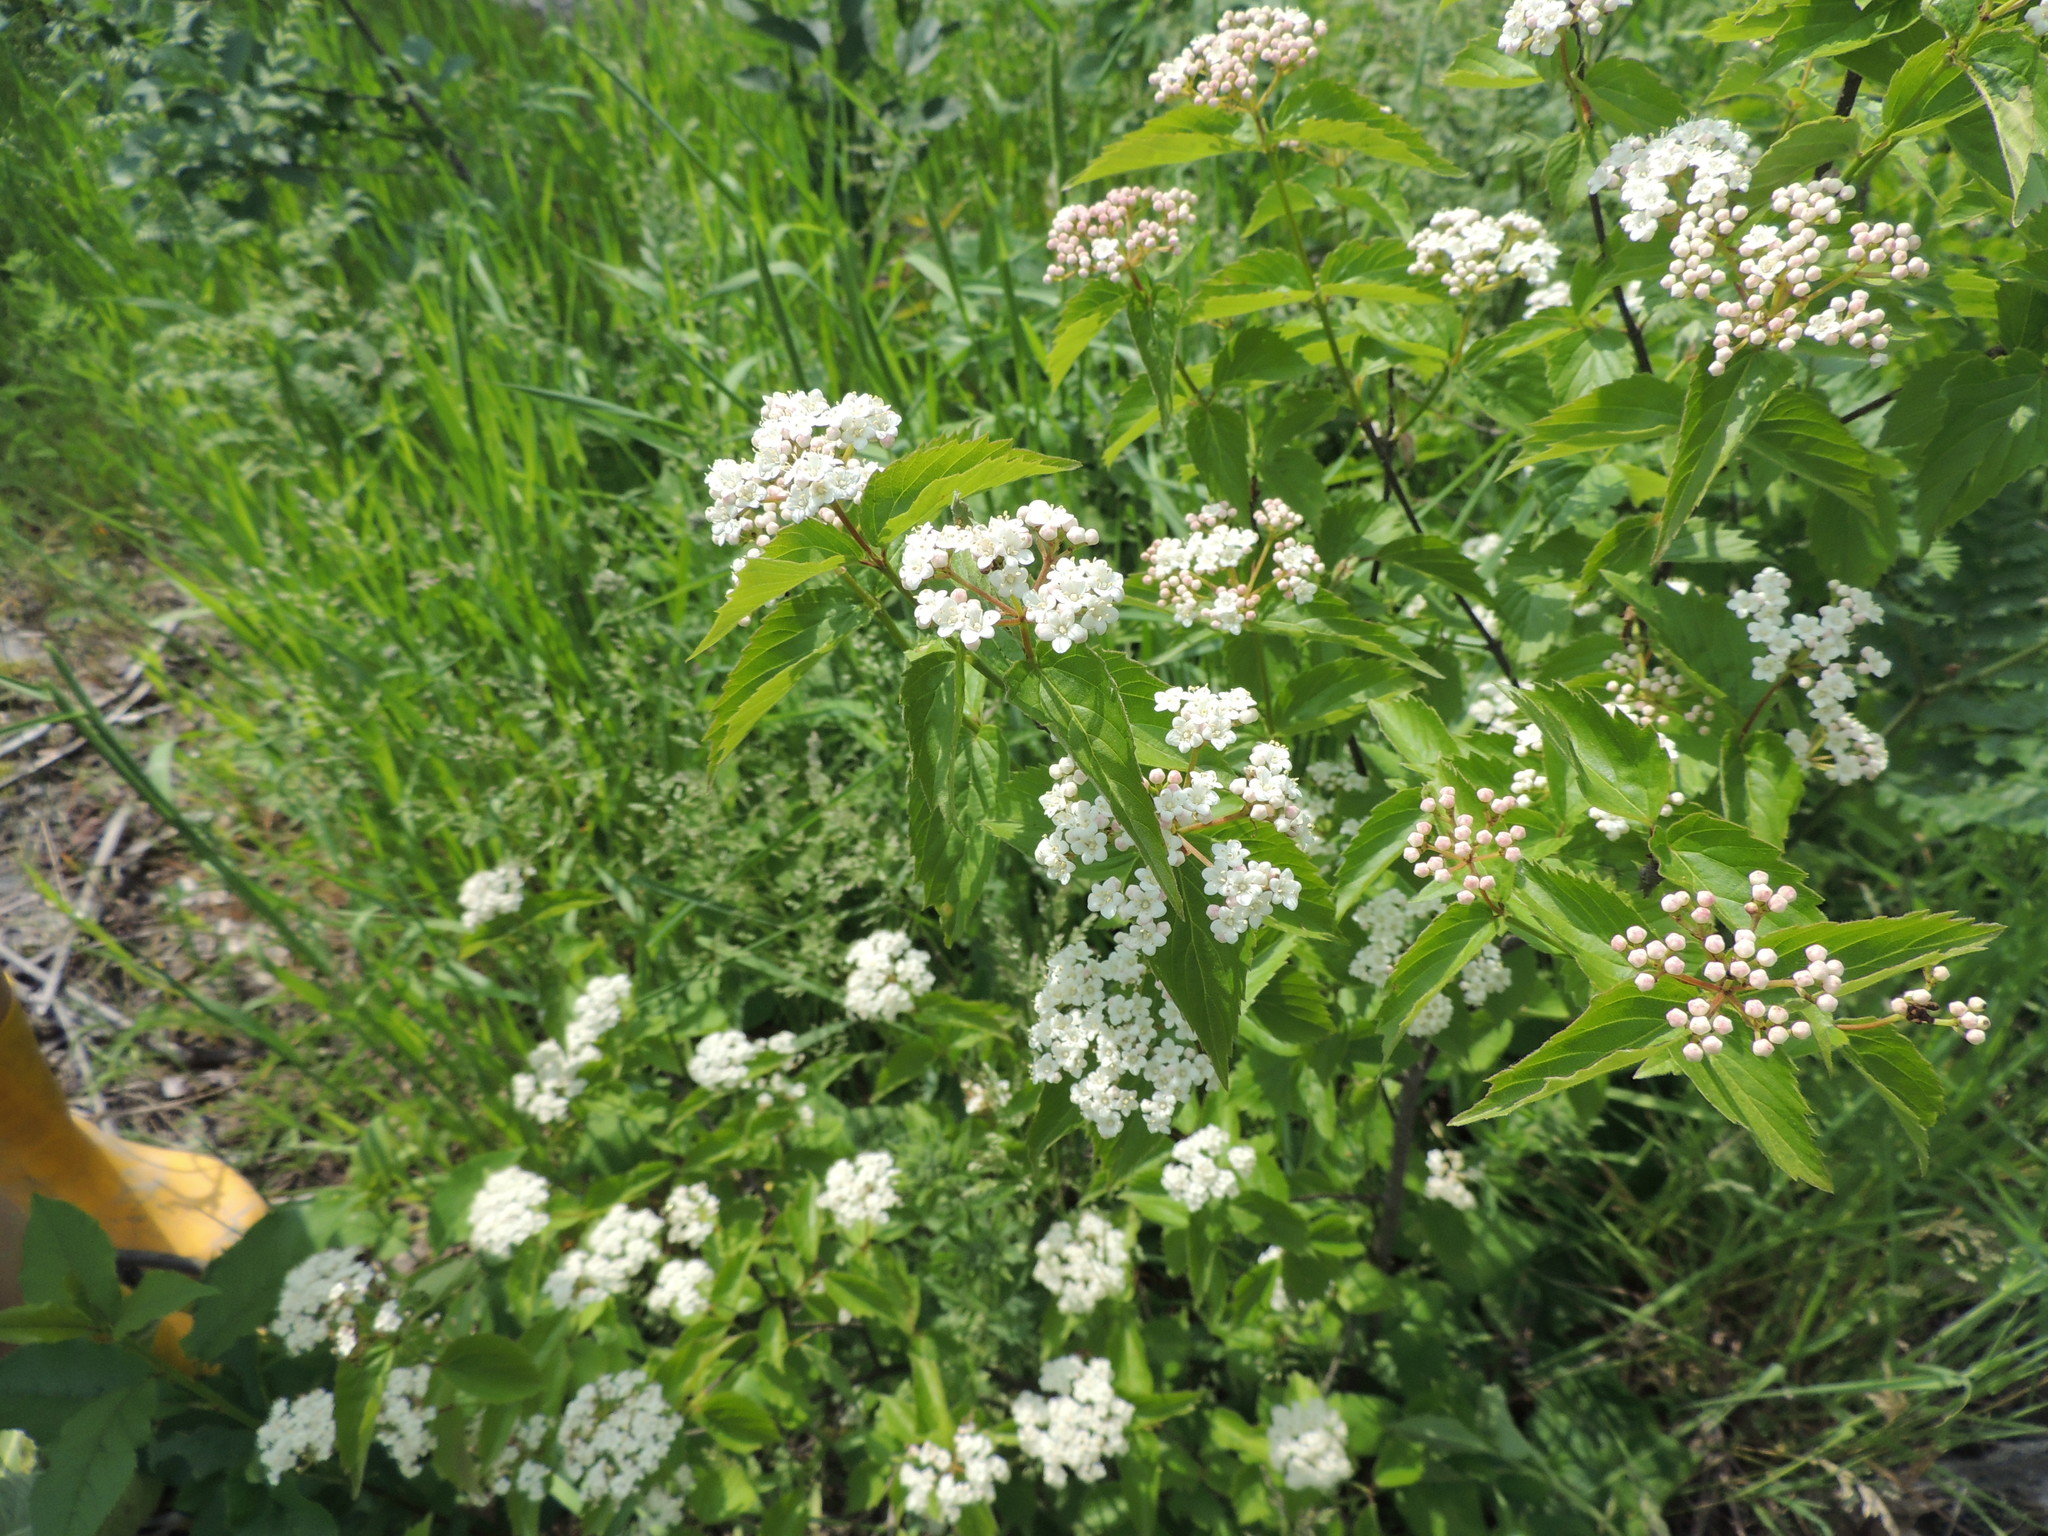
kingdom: Plantae
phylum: Tracheophyta
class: Magnoliopsida
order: Dipsacales
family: Viburnaceae
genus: Viburnum
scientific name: Viburnum rafinesqueanum
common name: Downy arrow-wood
